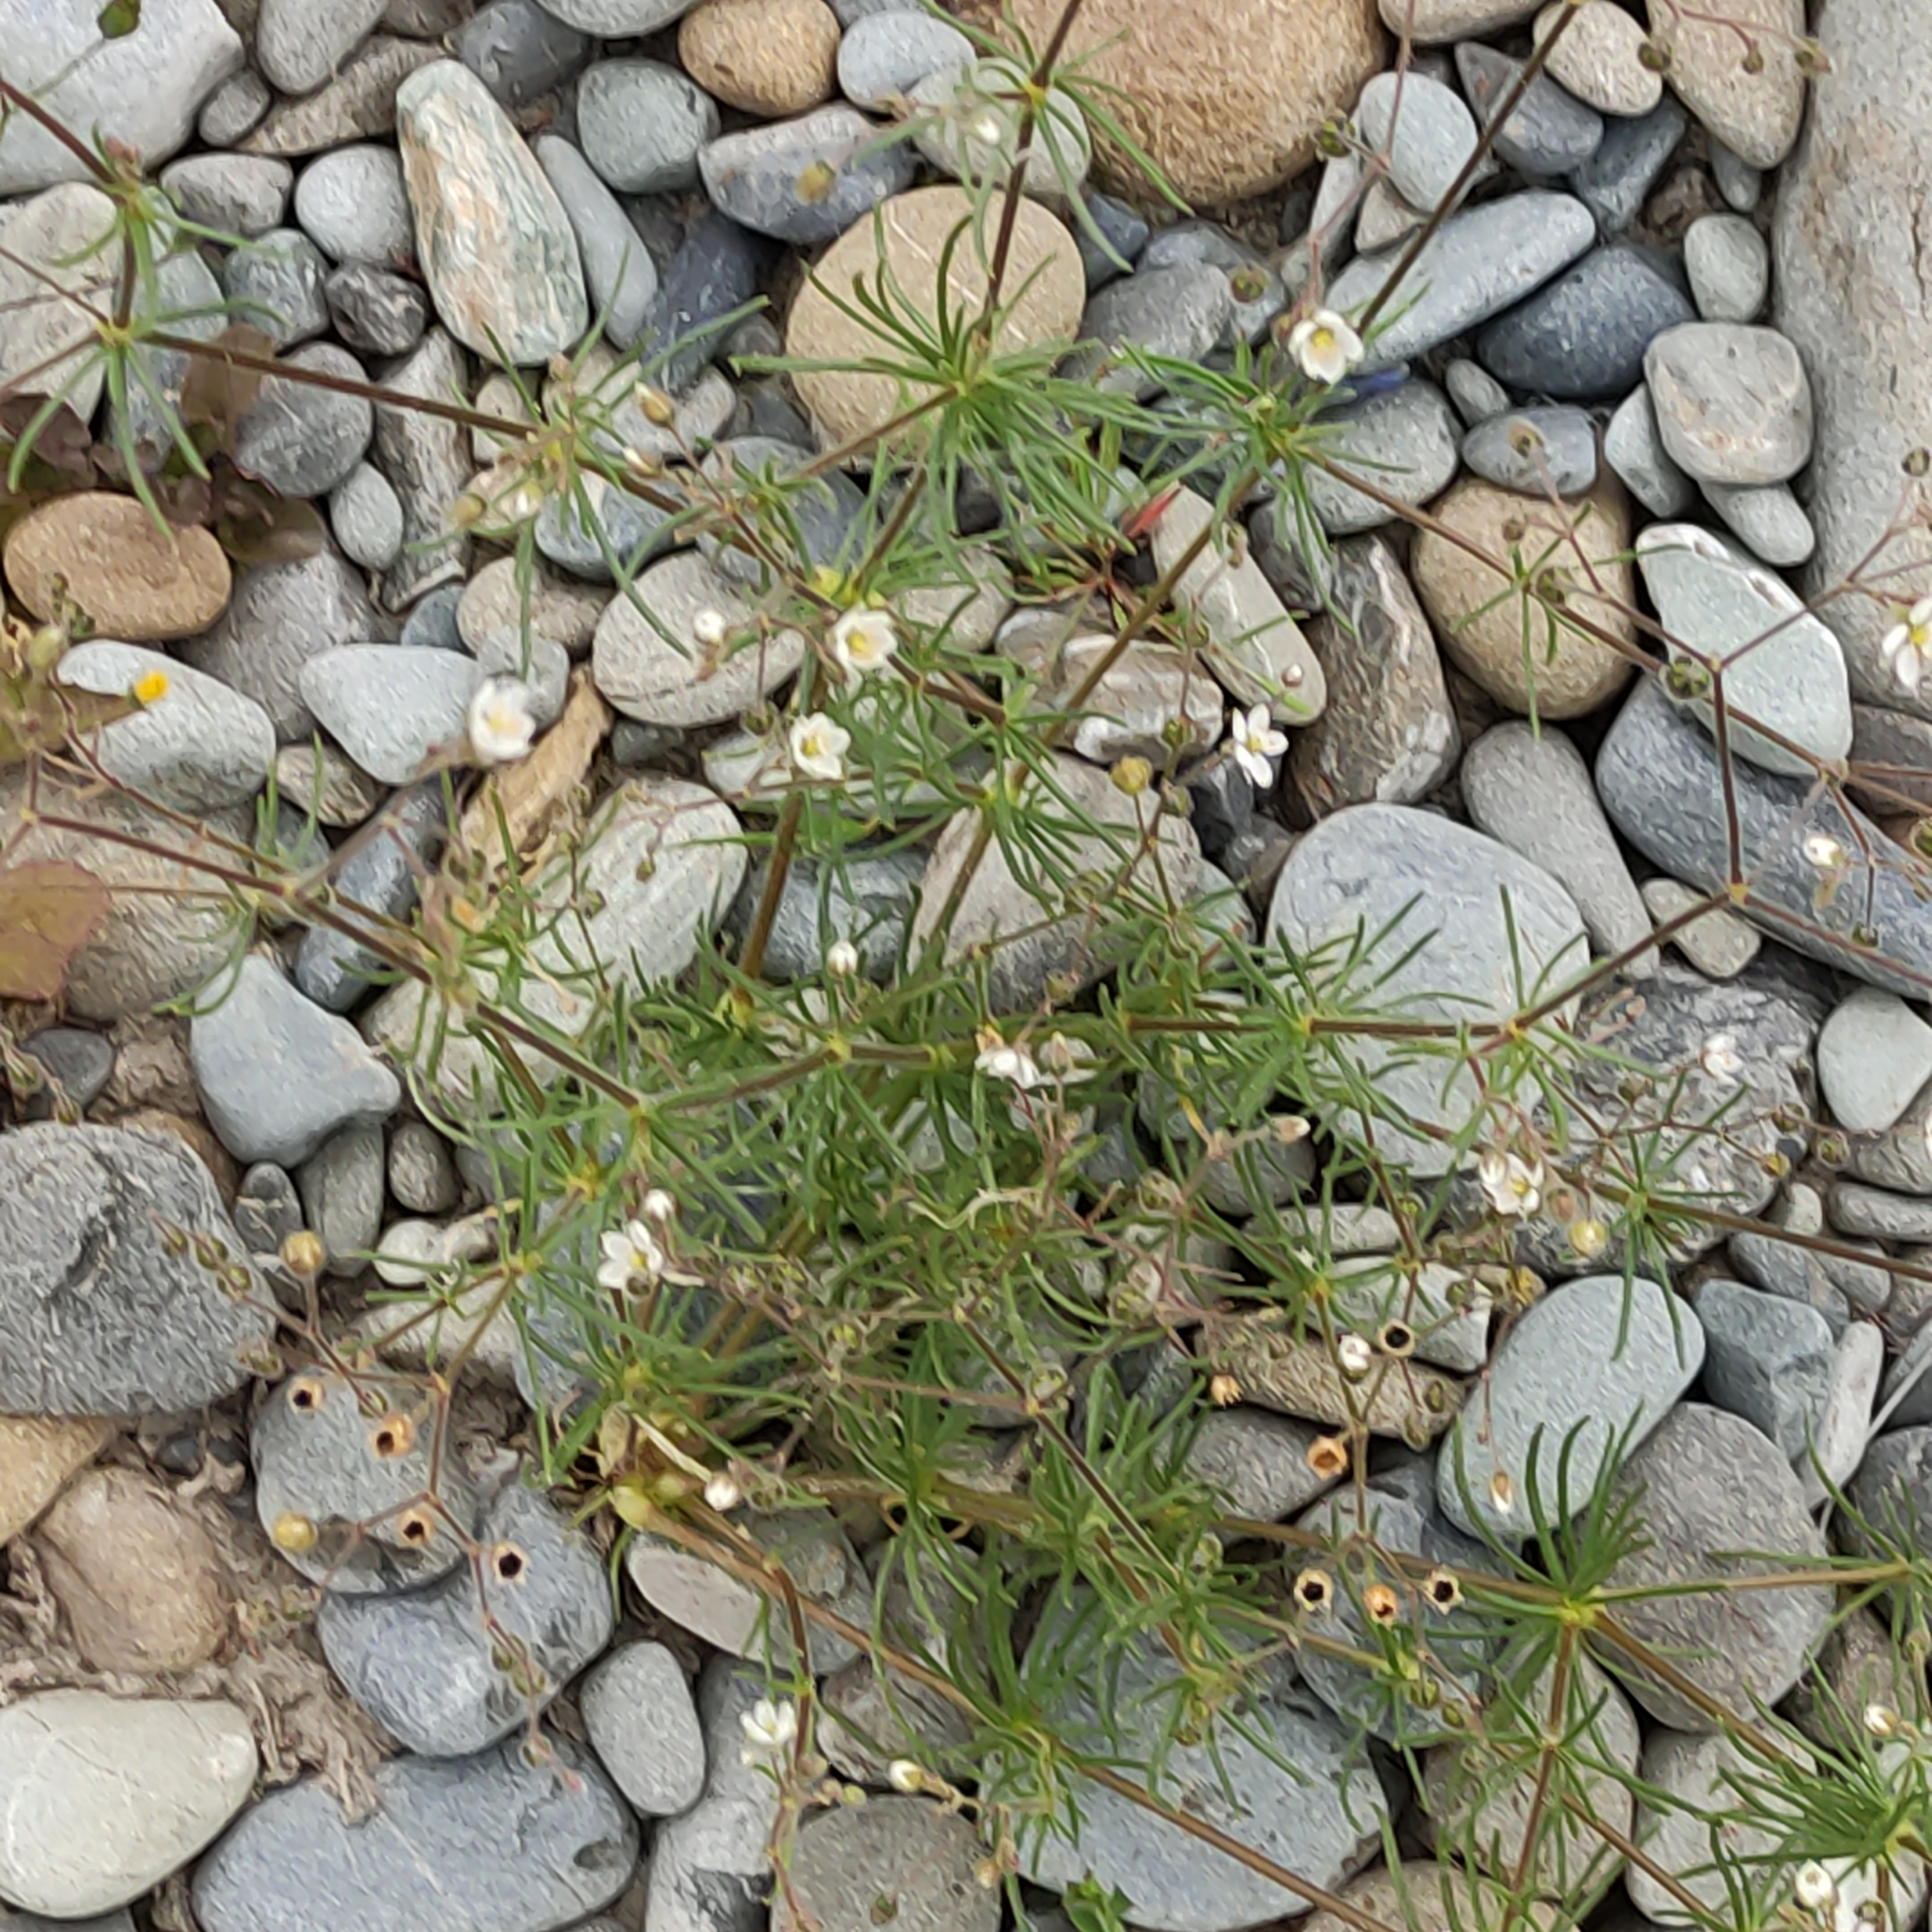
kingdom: Plantae
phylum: Tracheophyta
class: Magnoliopsida
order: Caryophyllales
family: Caryophyllaceae
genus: Spergula
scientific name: Spergula arvensis
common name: Corn spurrey
